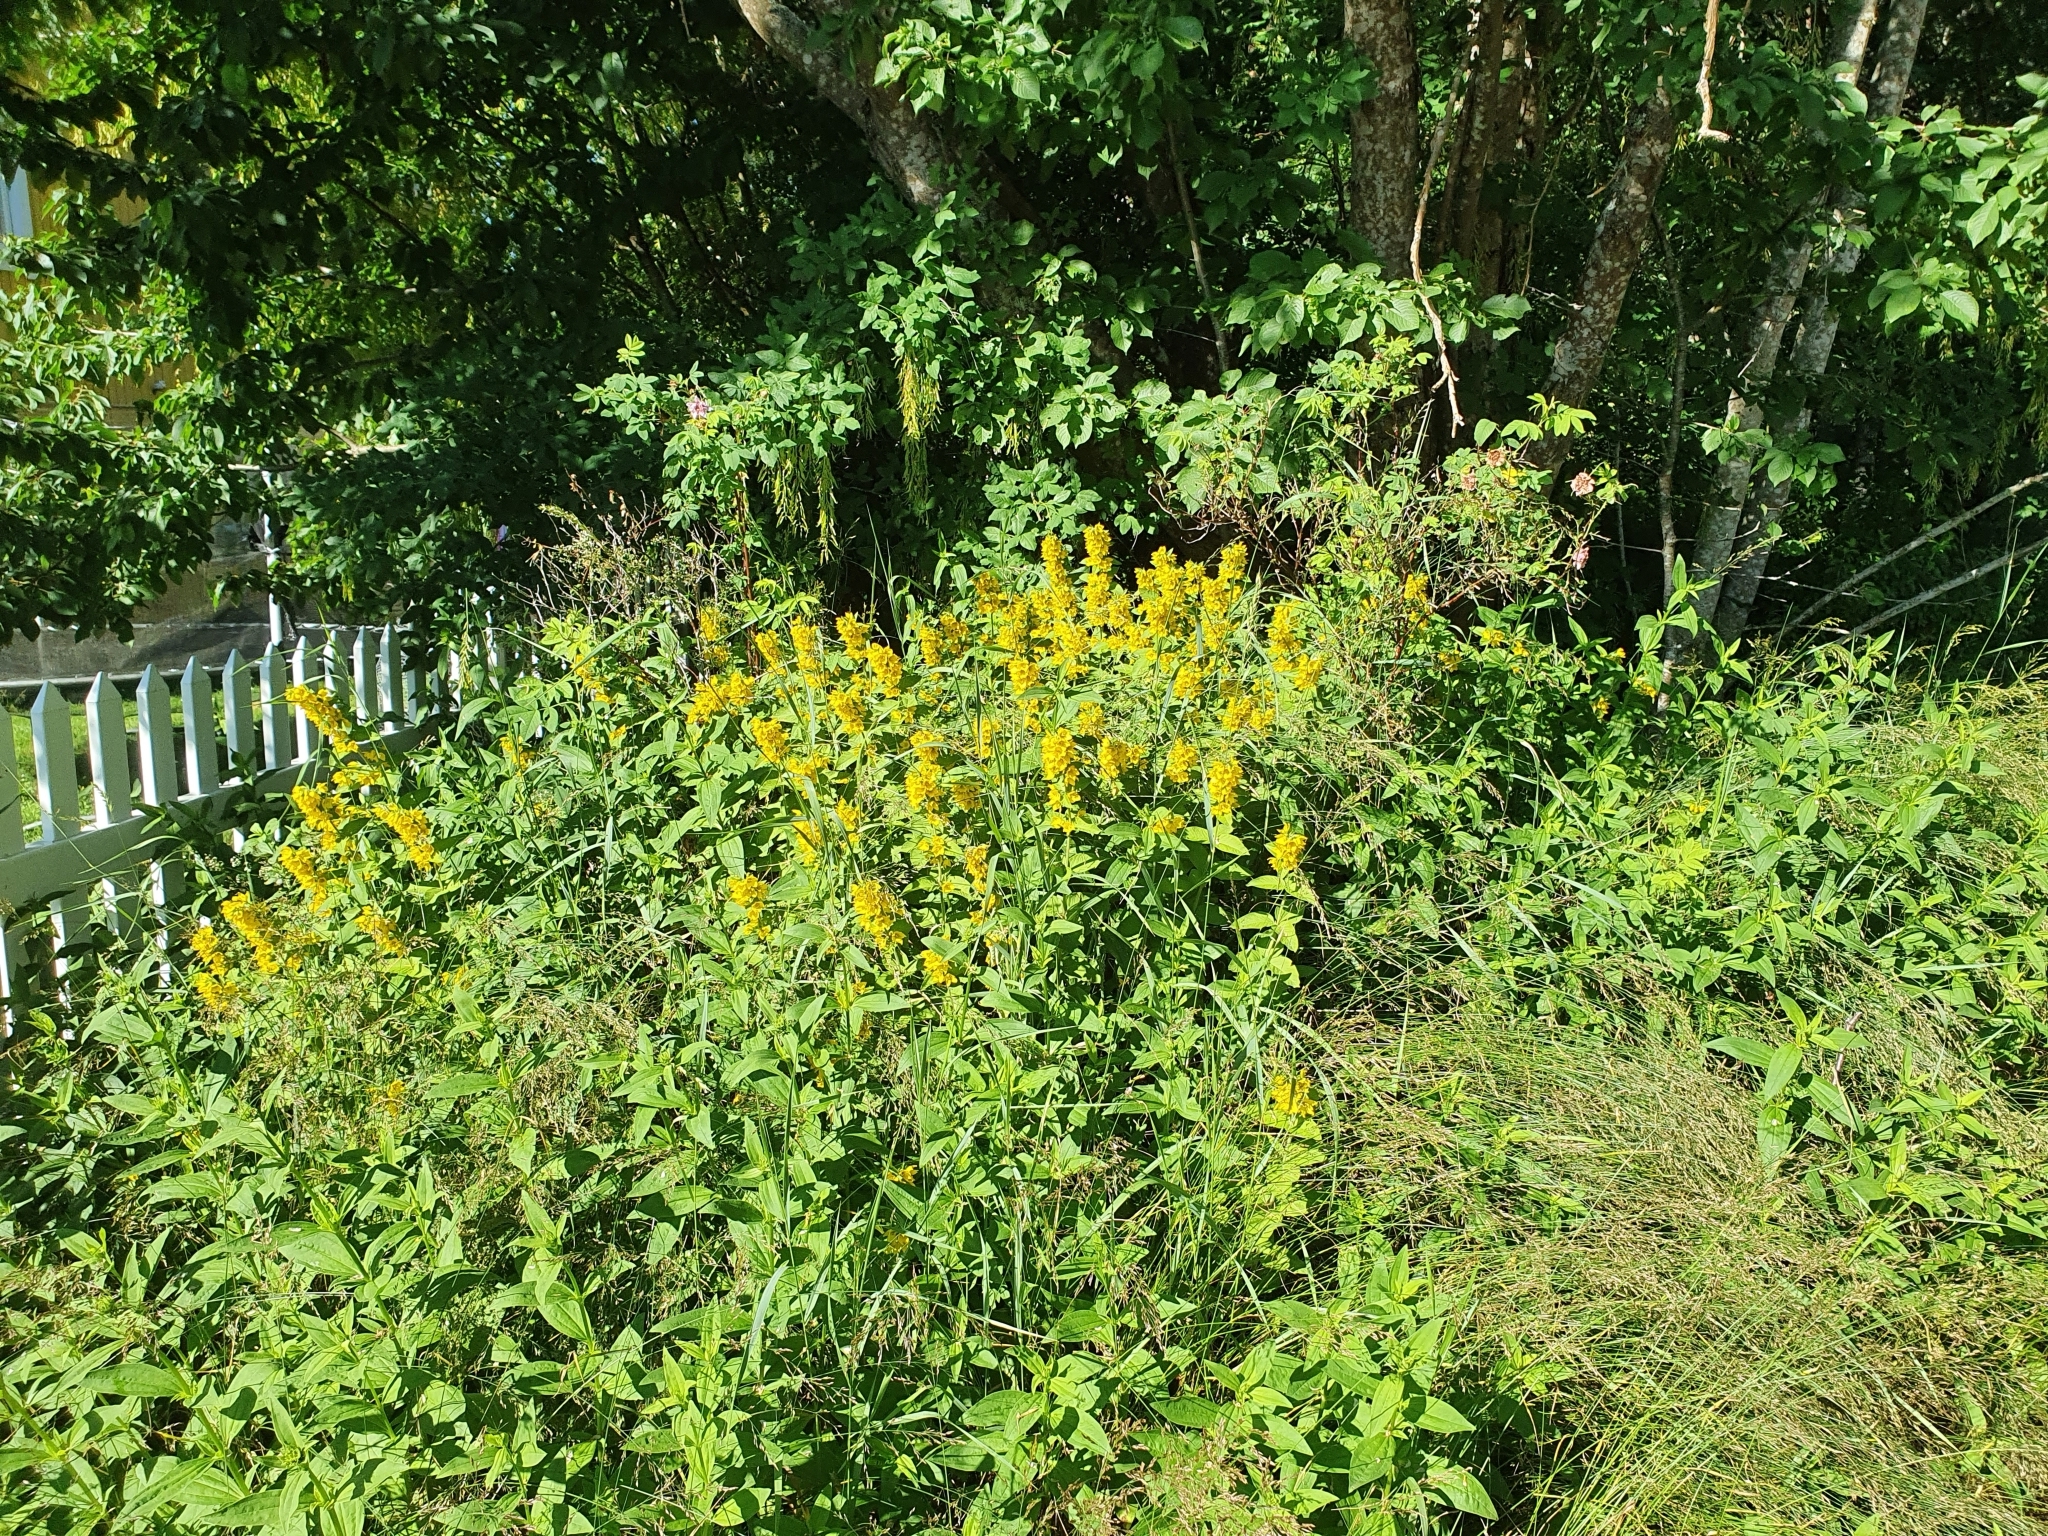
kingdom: Plantae
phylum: Tracheophyta
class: Magnoliopsida
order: Ericales
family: Primulaceae
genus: Lysimachia
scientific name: Lysimachia punctata
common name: Dotted loosestrife
